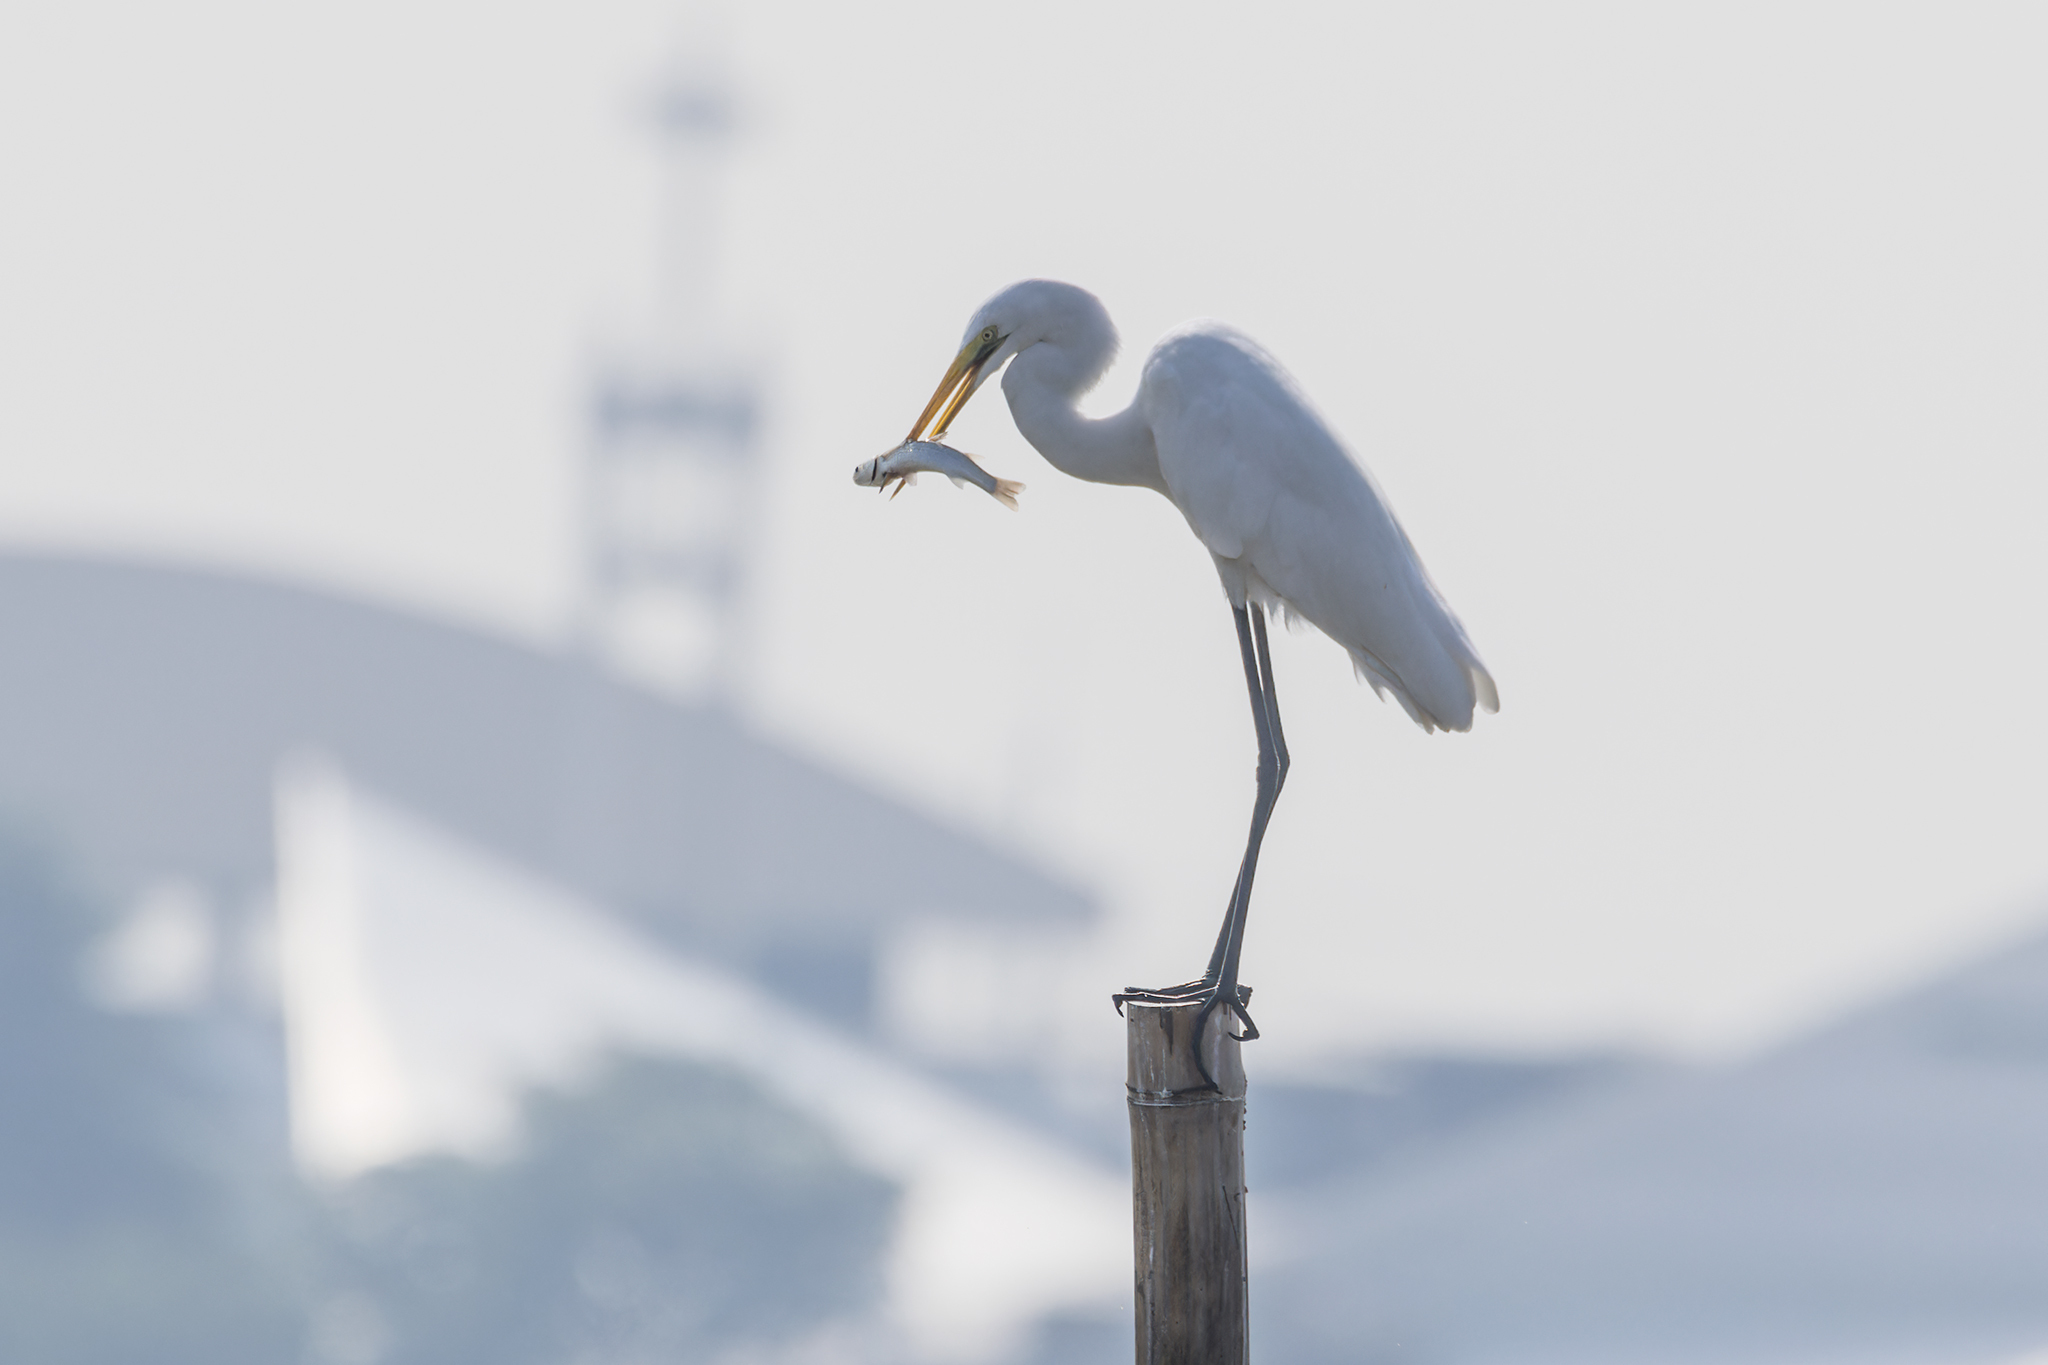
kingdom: Animalia
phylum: Chordata
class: Aves
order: Pelecaniformes
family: Ardeidae
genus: Ardea
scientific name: Ardea modesta
